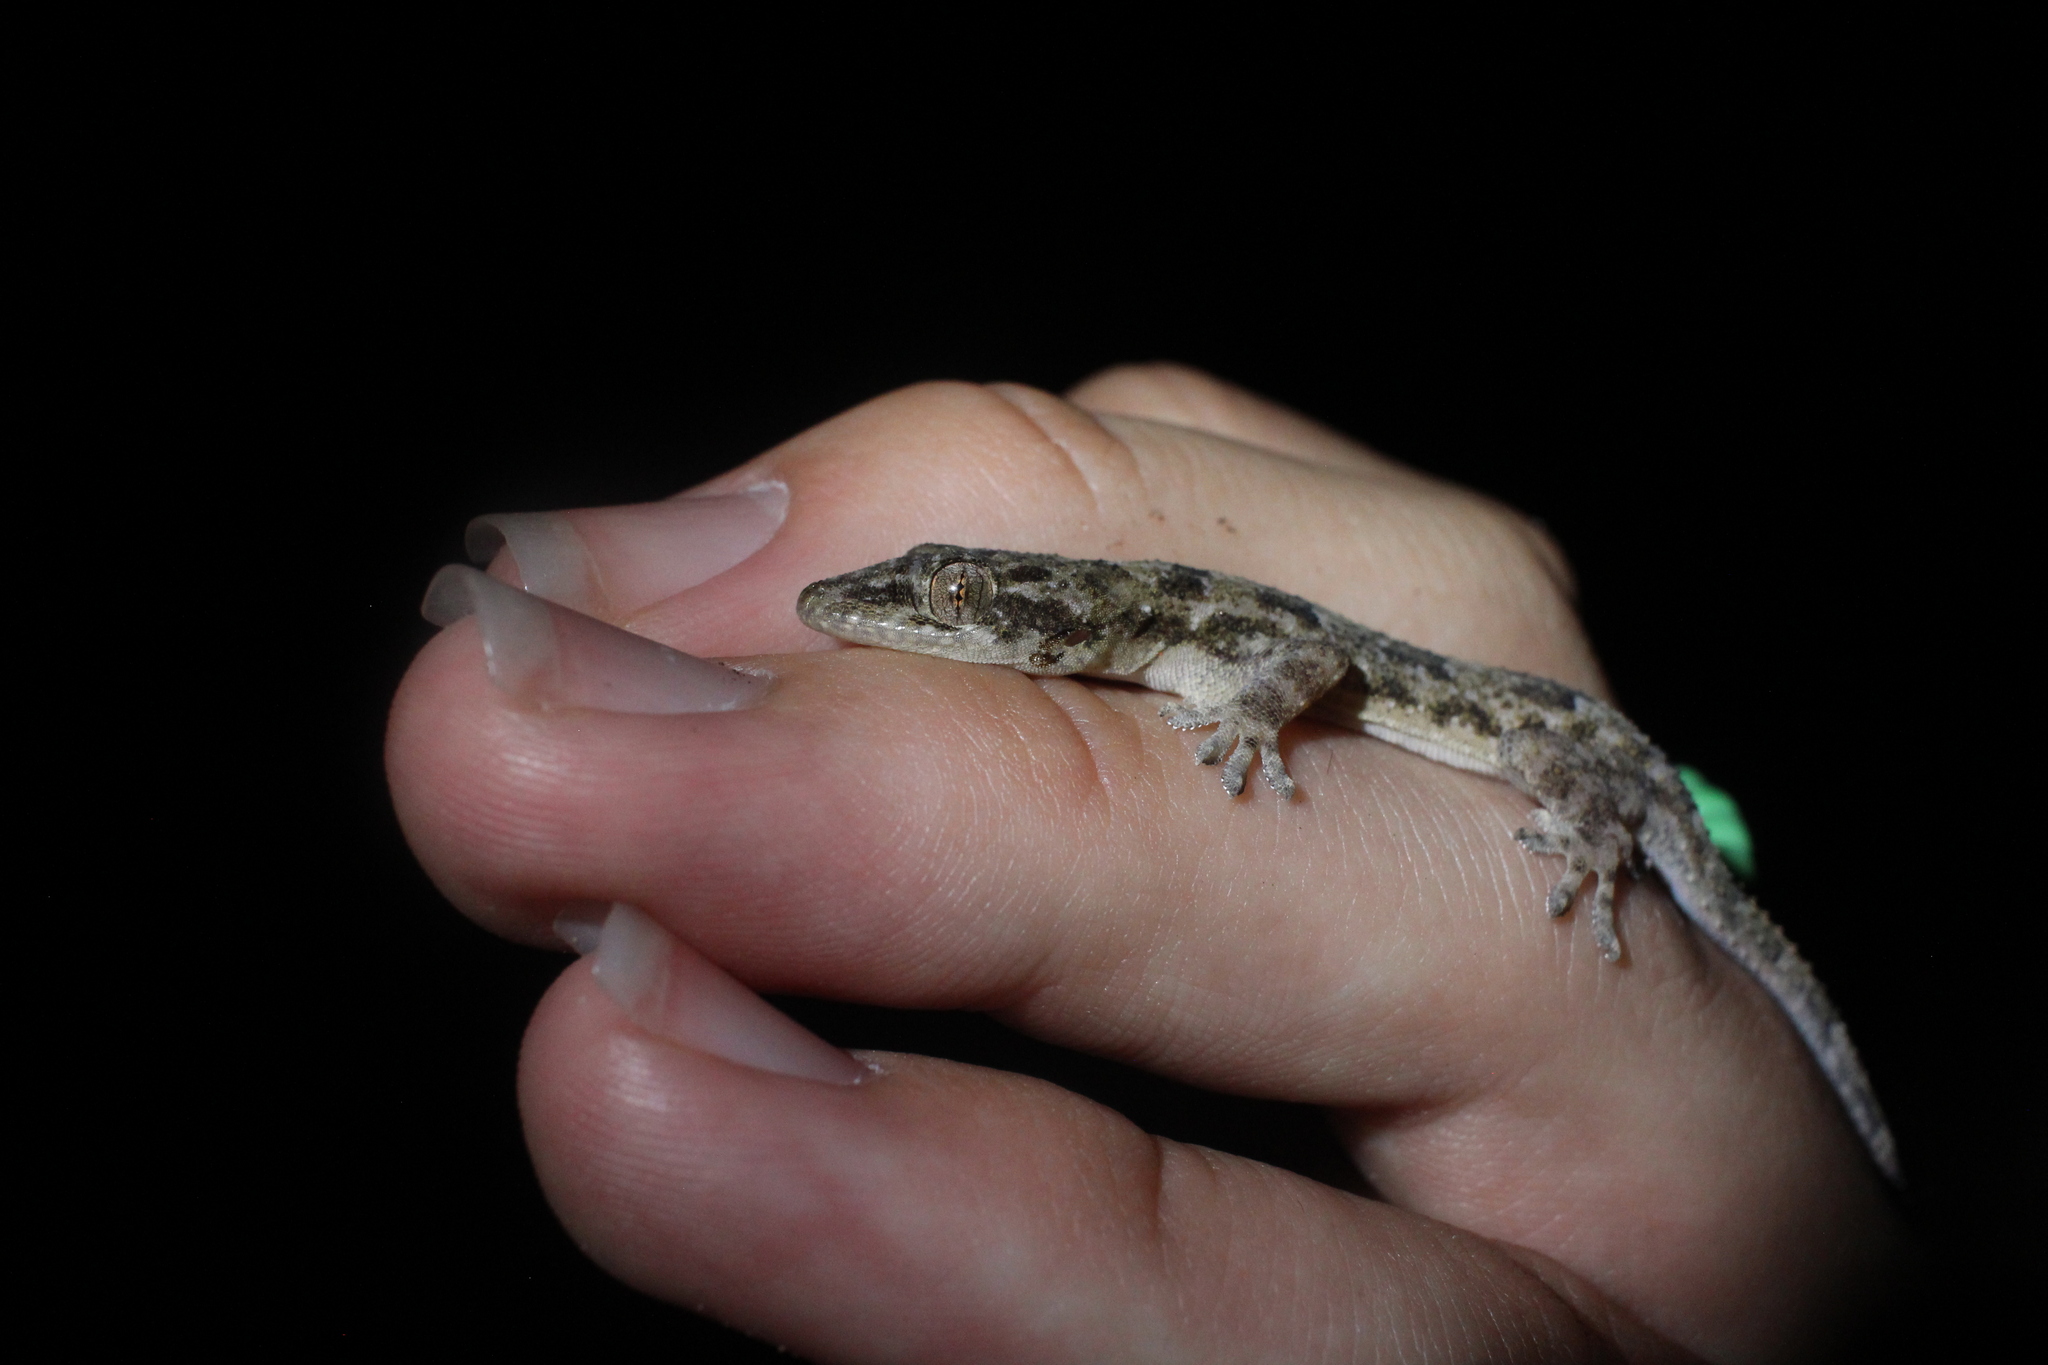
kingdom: Animalia
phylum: Chordata
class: Squamata
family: Gekkonidae
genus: Hemidactylus
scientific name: Hemidactylus mabouia
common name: House gecko
